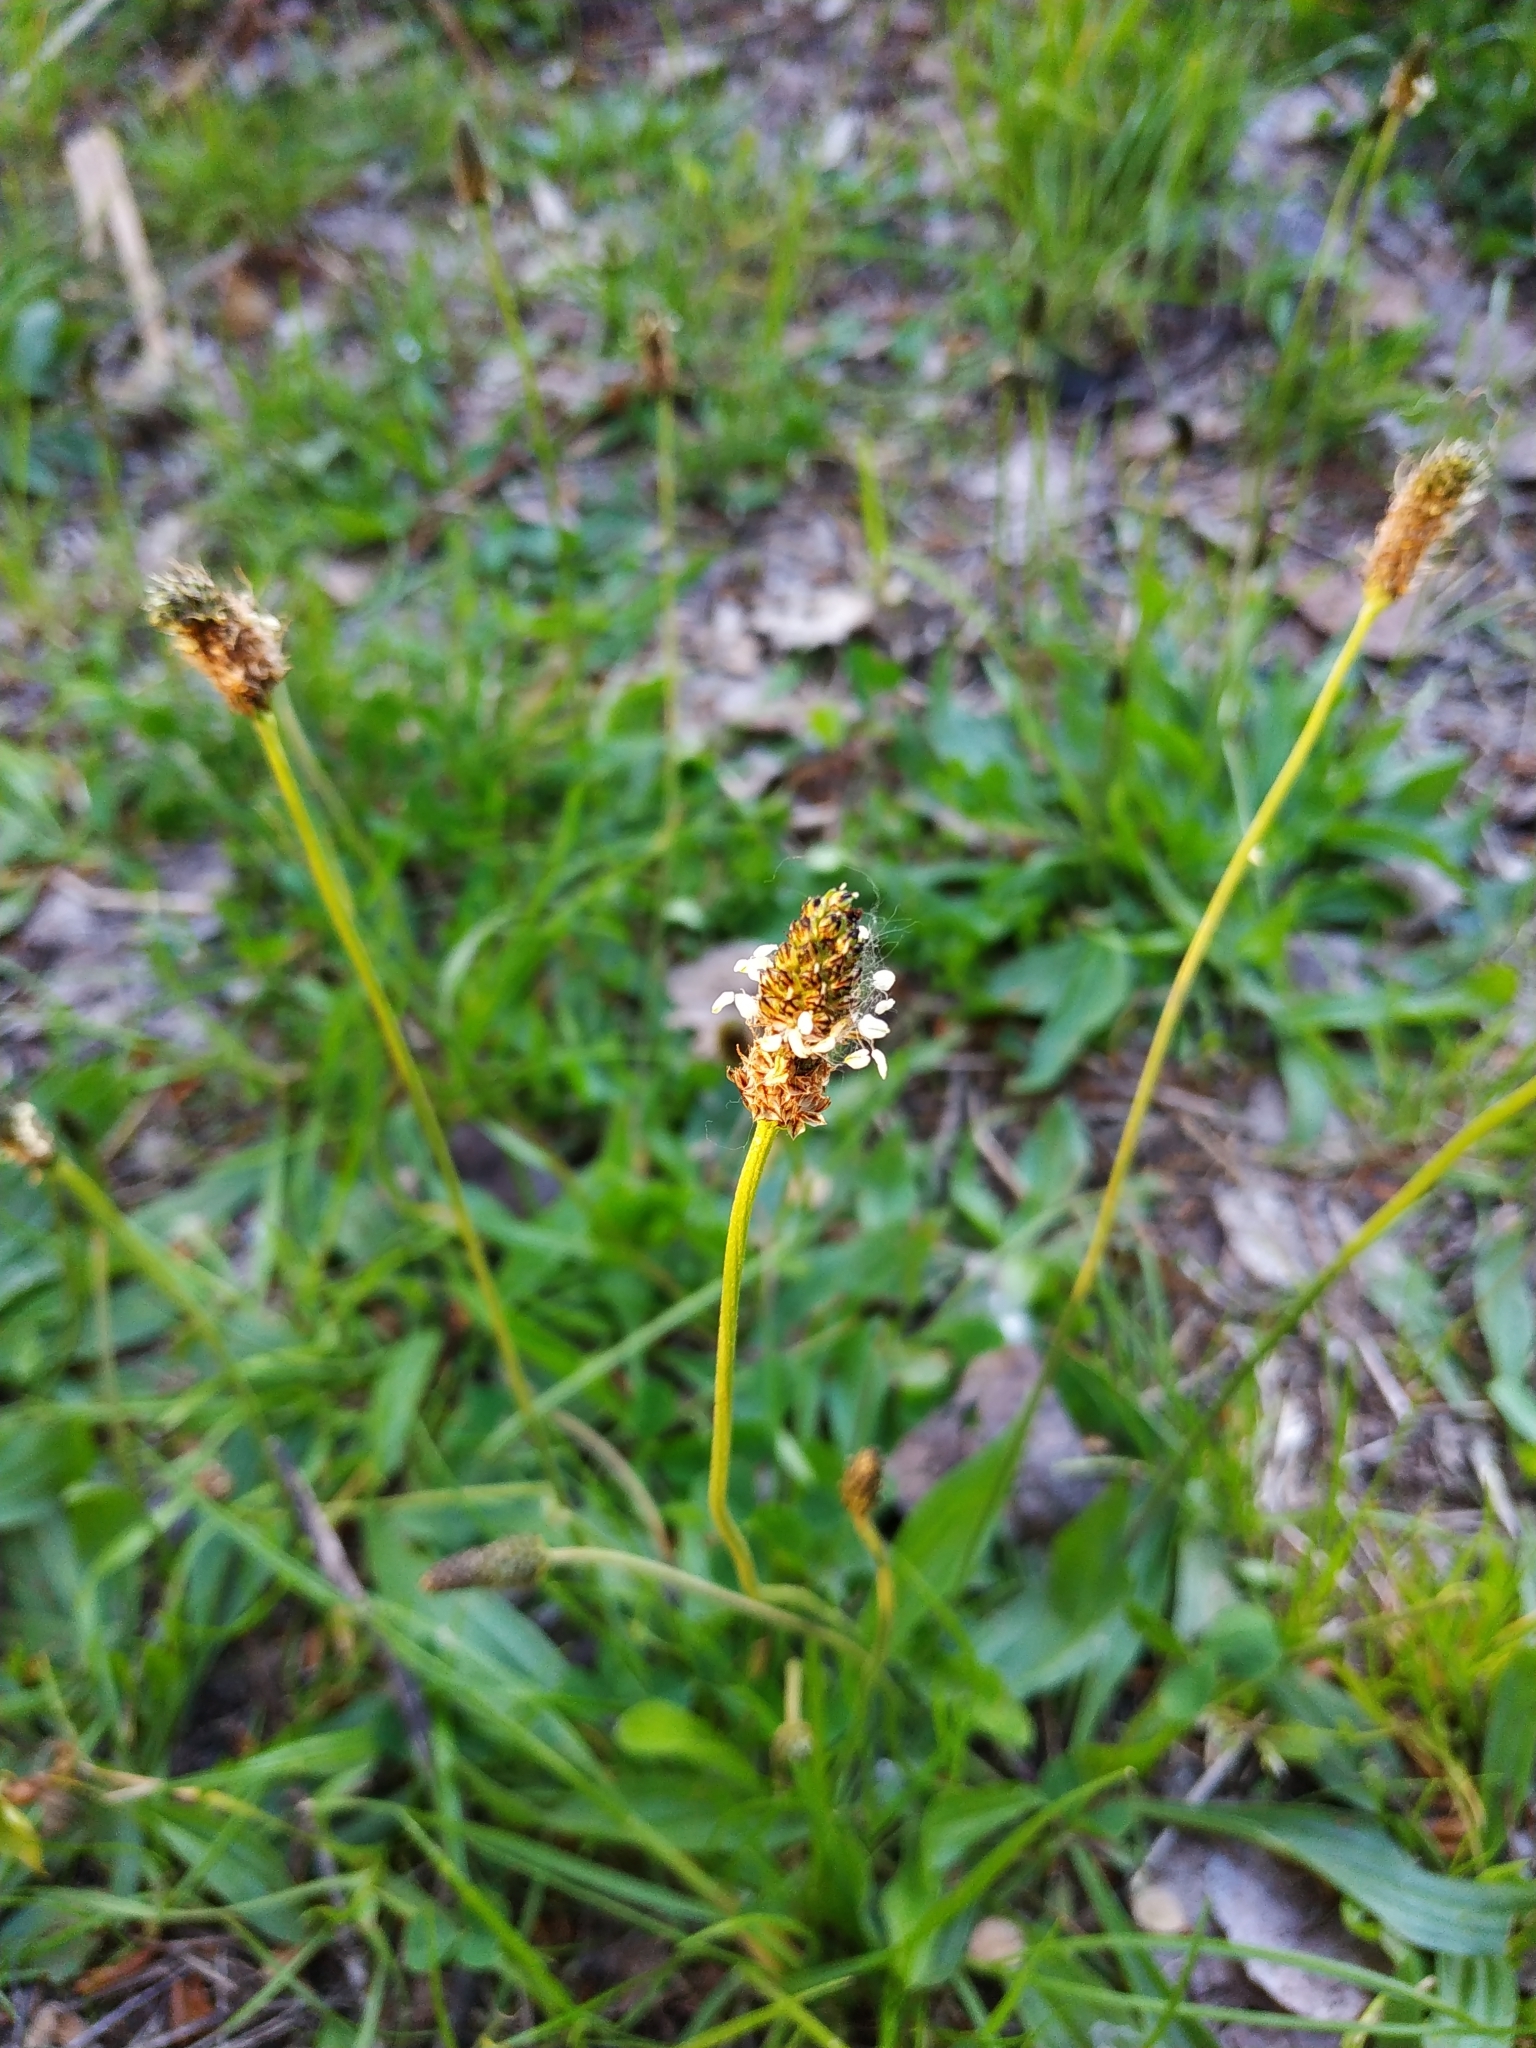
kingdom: Plantae
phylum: Tracheophyta
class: Magnoliopsida
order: Lamiales
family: Plantaginaceae
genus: Plantago
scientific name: Plantago lanceolata
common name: Ribwort plantain
